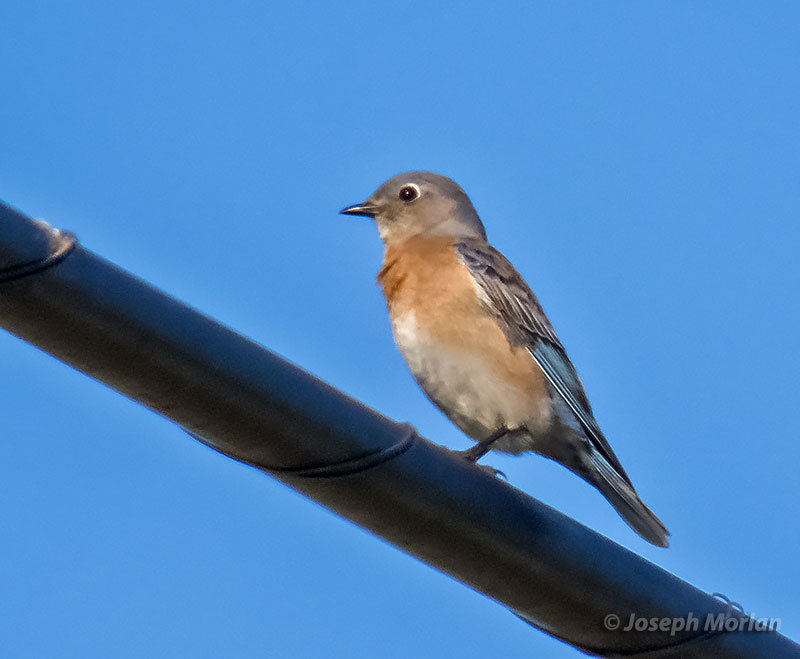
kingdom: Animalia
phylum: Chordata
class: Aves
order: Passeriformes
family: Turdidae
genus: Sialia
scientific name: Sialia mexicana
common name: Western bluebird
